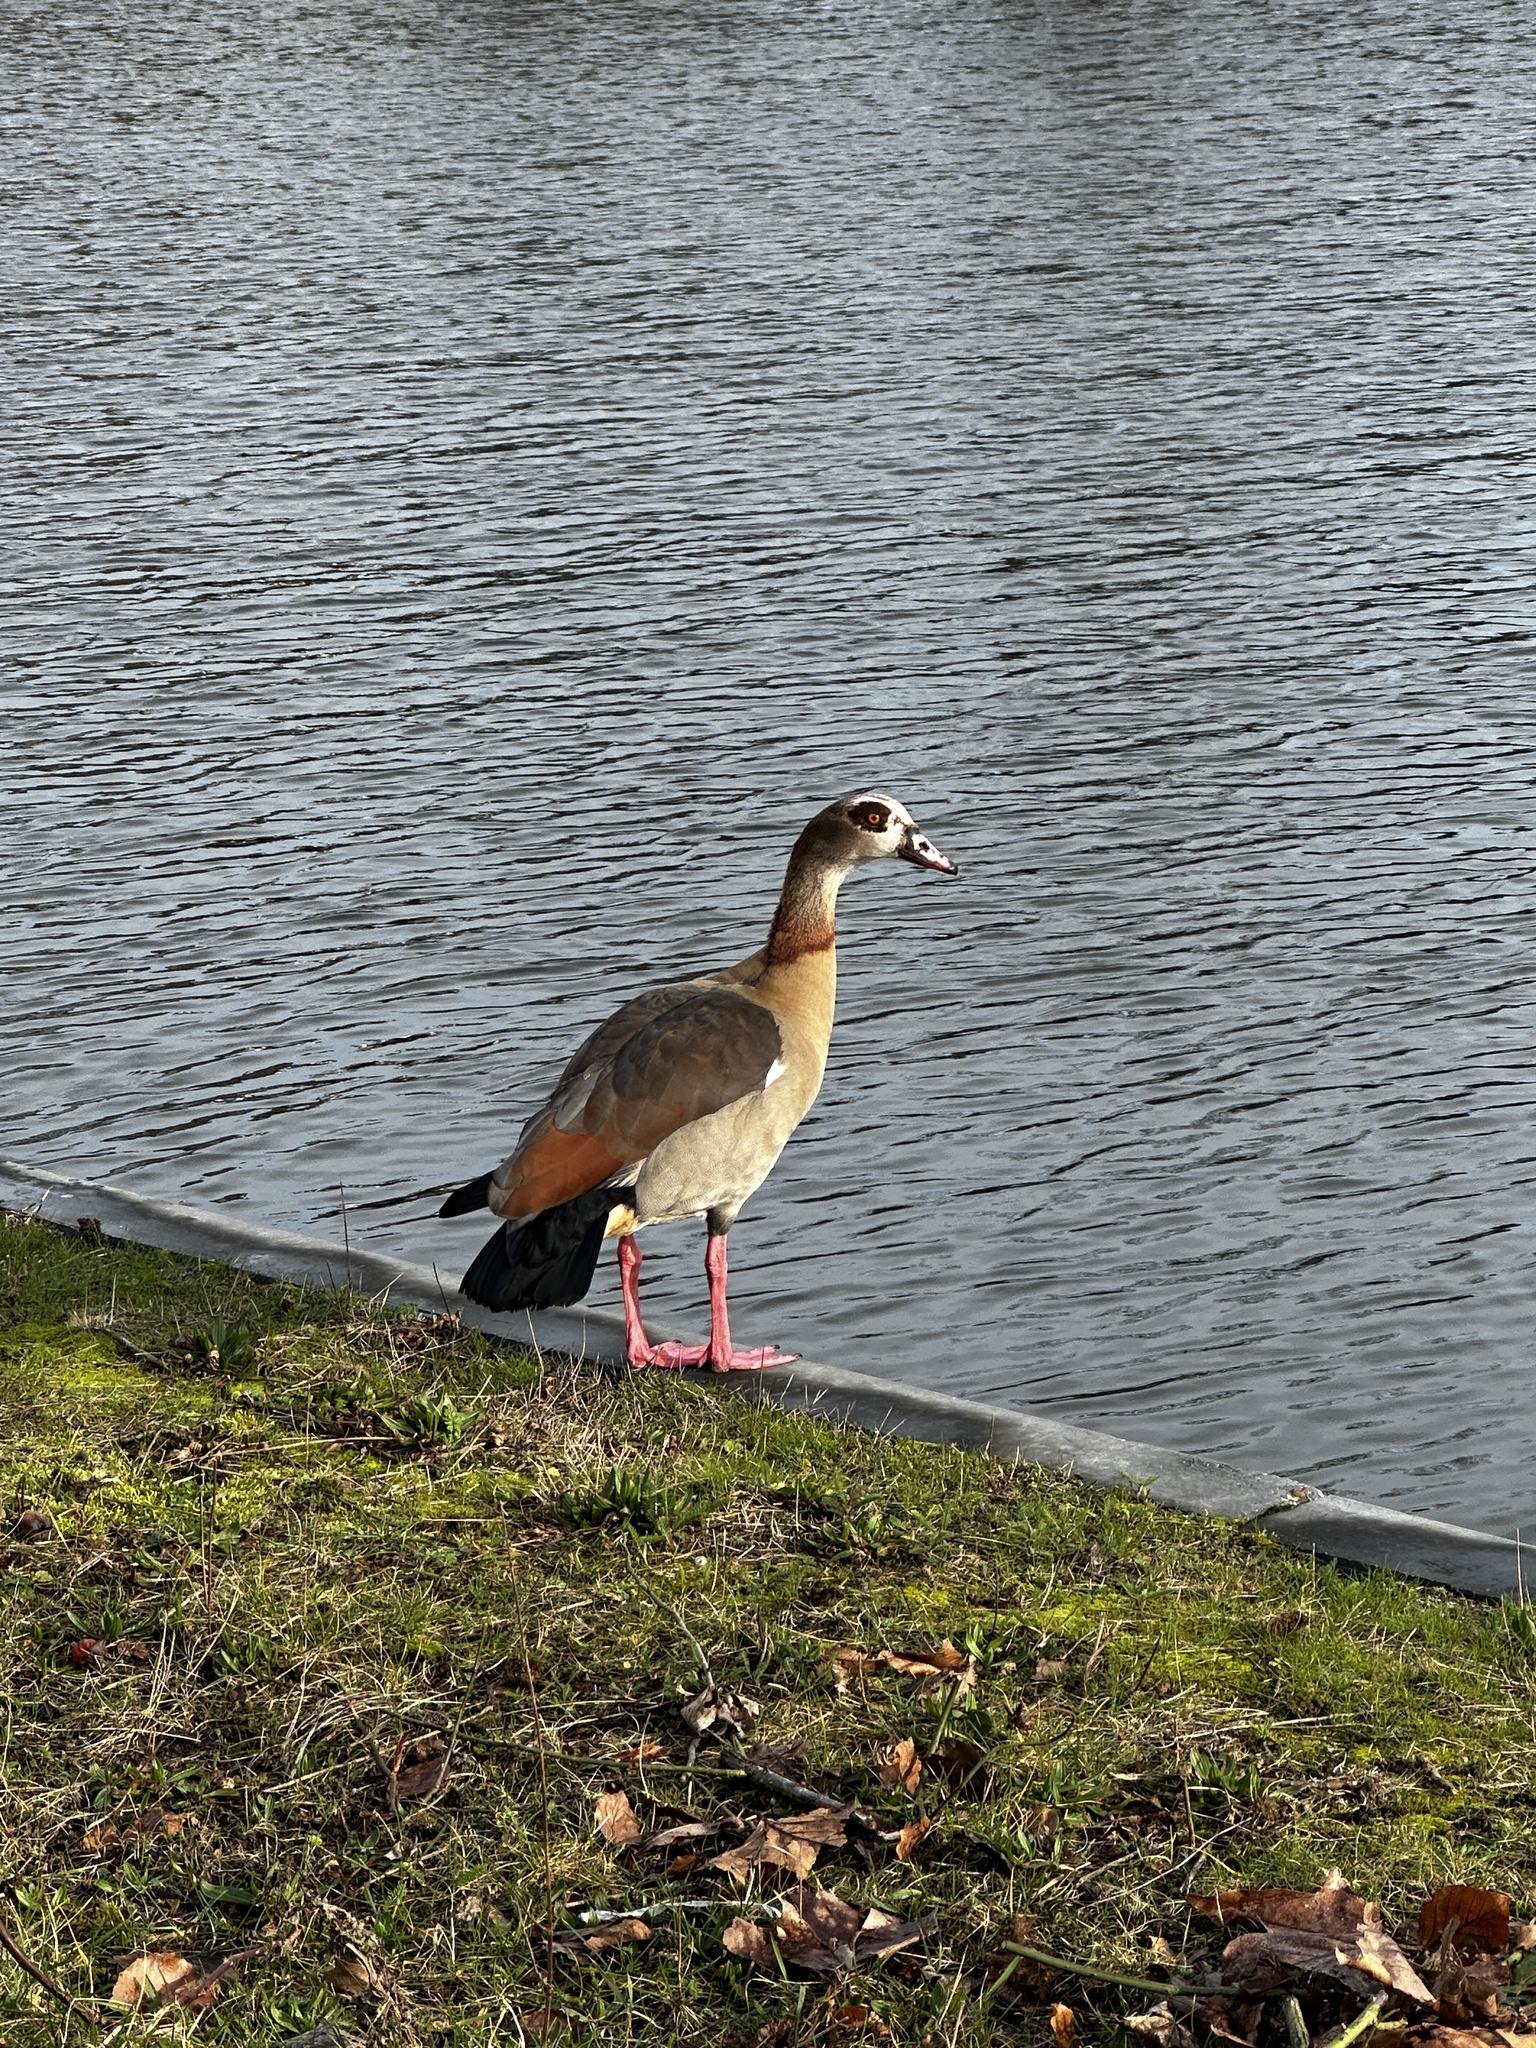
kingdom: Animalia
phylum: Chordata
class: Aves
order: Anseriformes
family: Anatidae
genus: Alopochen
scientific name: Alopochen aegyptiaca
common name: Egyptian goose
